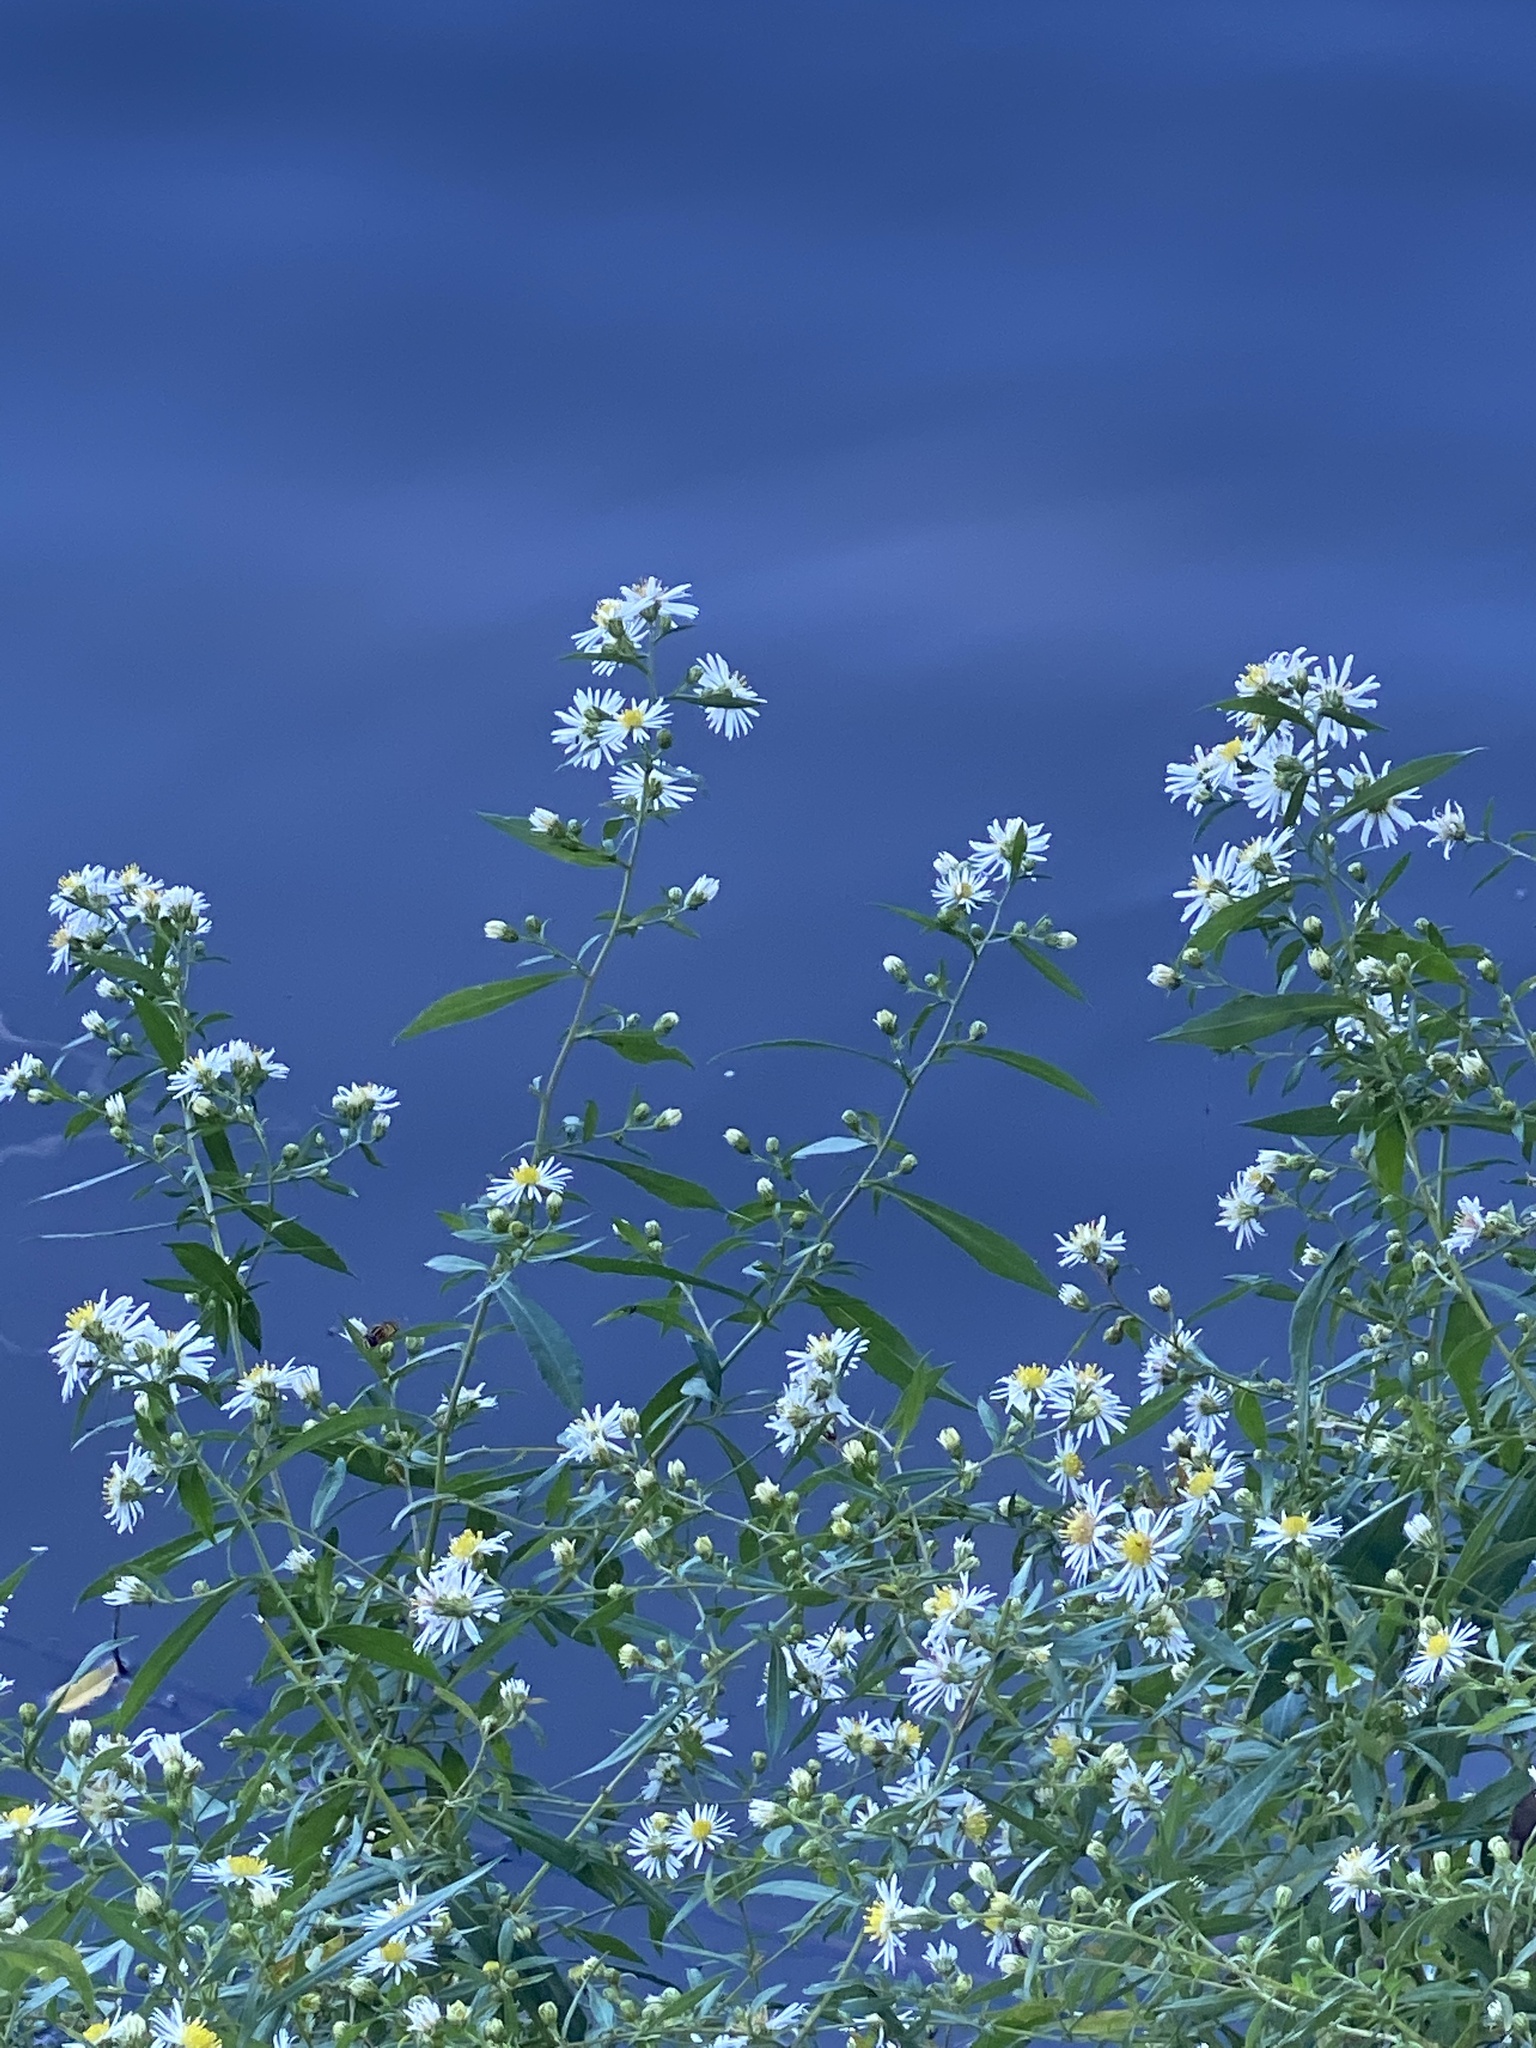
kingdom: Plantae
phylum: Tracheophyta
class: Magnoliopsida
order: Asterales
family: Asteraceae
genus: Symphyotrichum
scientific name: Symphyotrichum lanceolatum
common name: Panicled aster
